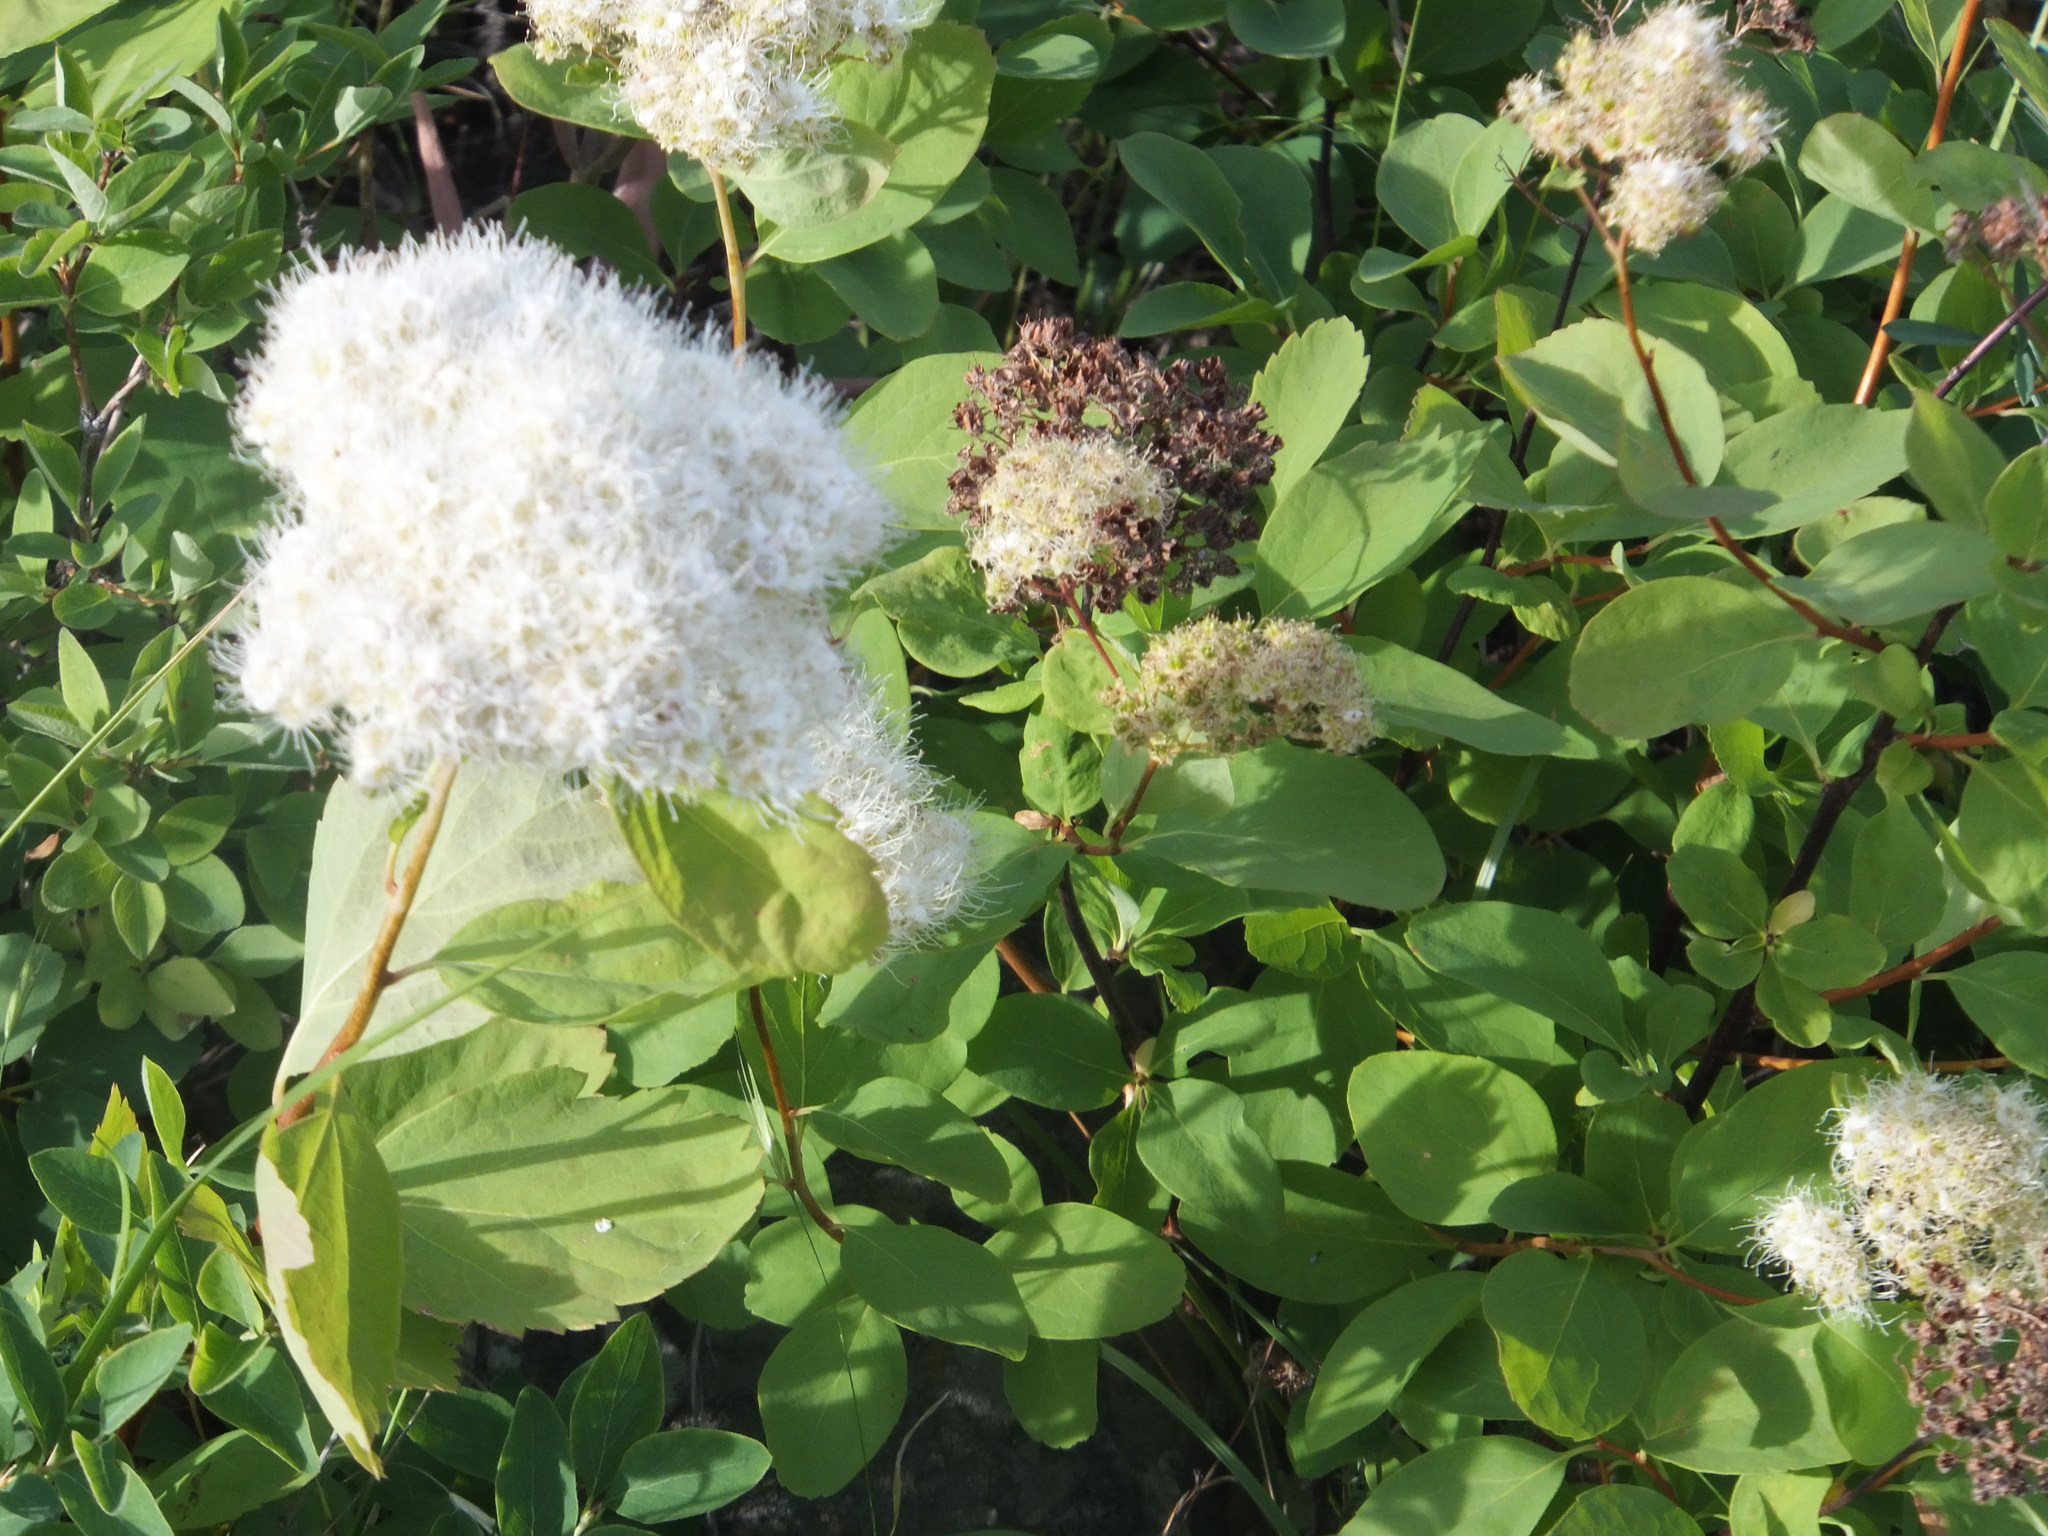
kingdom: Plantae
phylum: Tracheophyta
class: Magnoliopsida
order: Rosales
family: Rosaceae
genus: Spiraea
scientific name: Spiraea lucida
